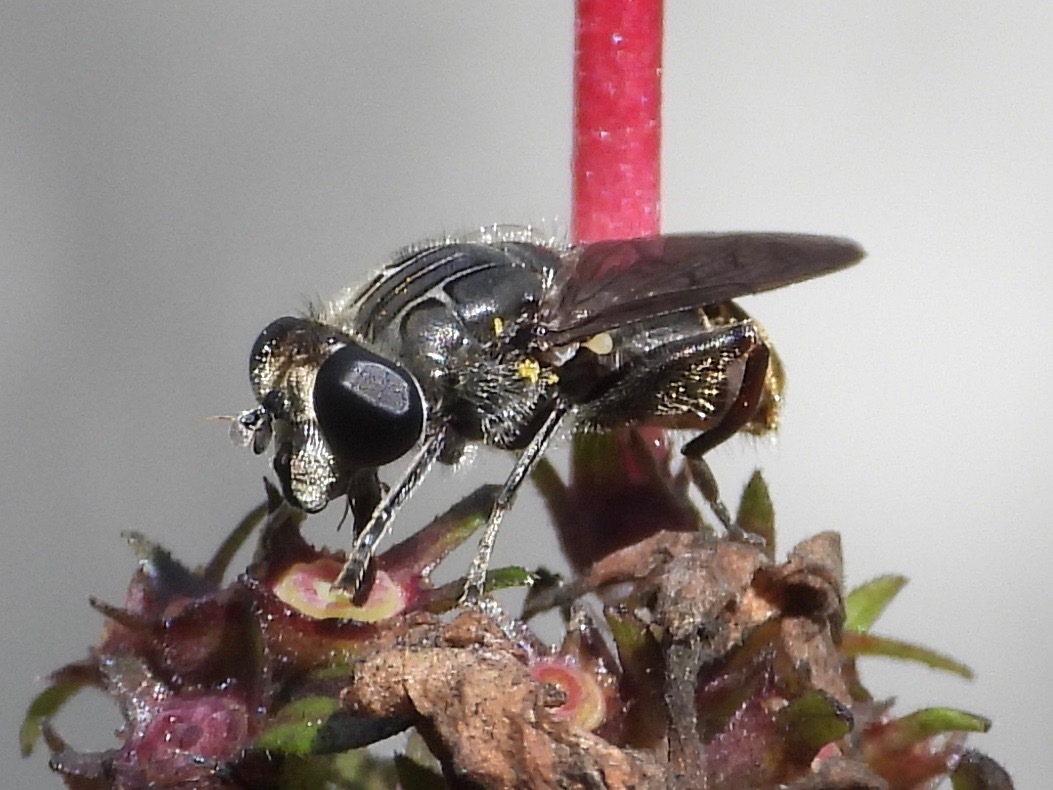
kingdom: Animalia
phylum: Arthropoda
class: Insecta
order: Diptera
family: Syrphidae
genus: Asemosyrphus
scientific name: Asemosyrphus
